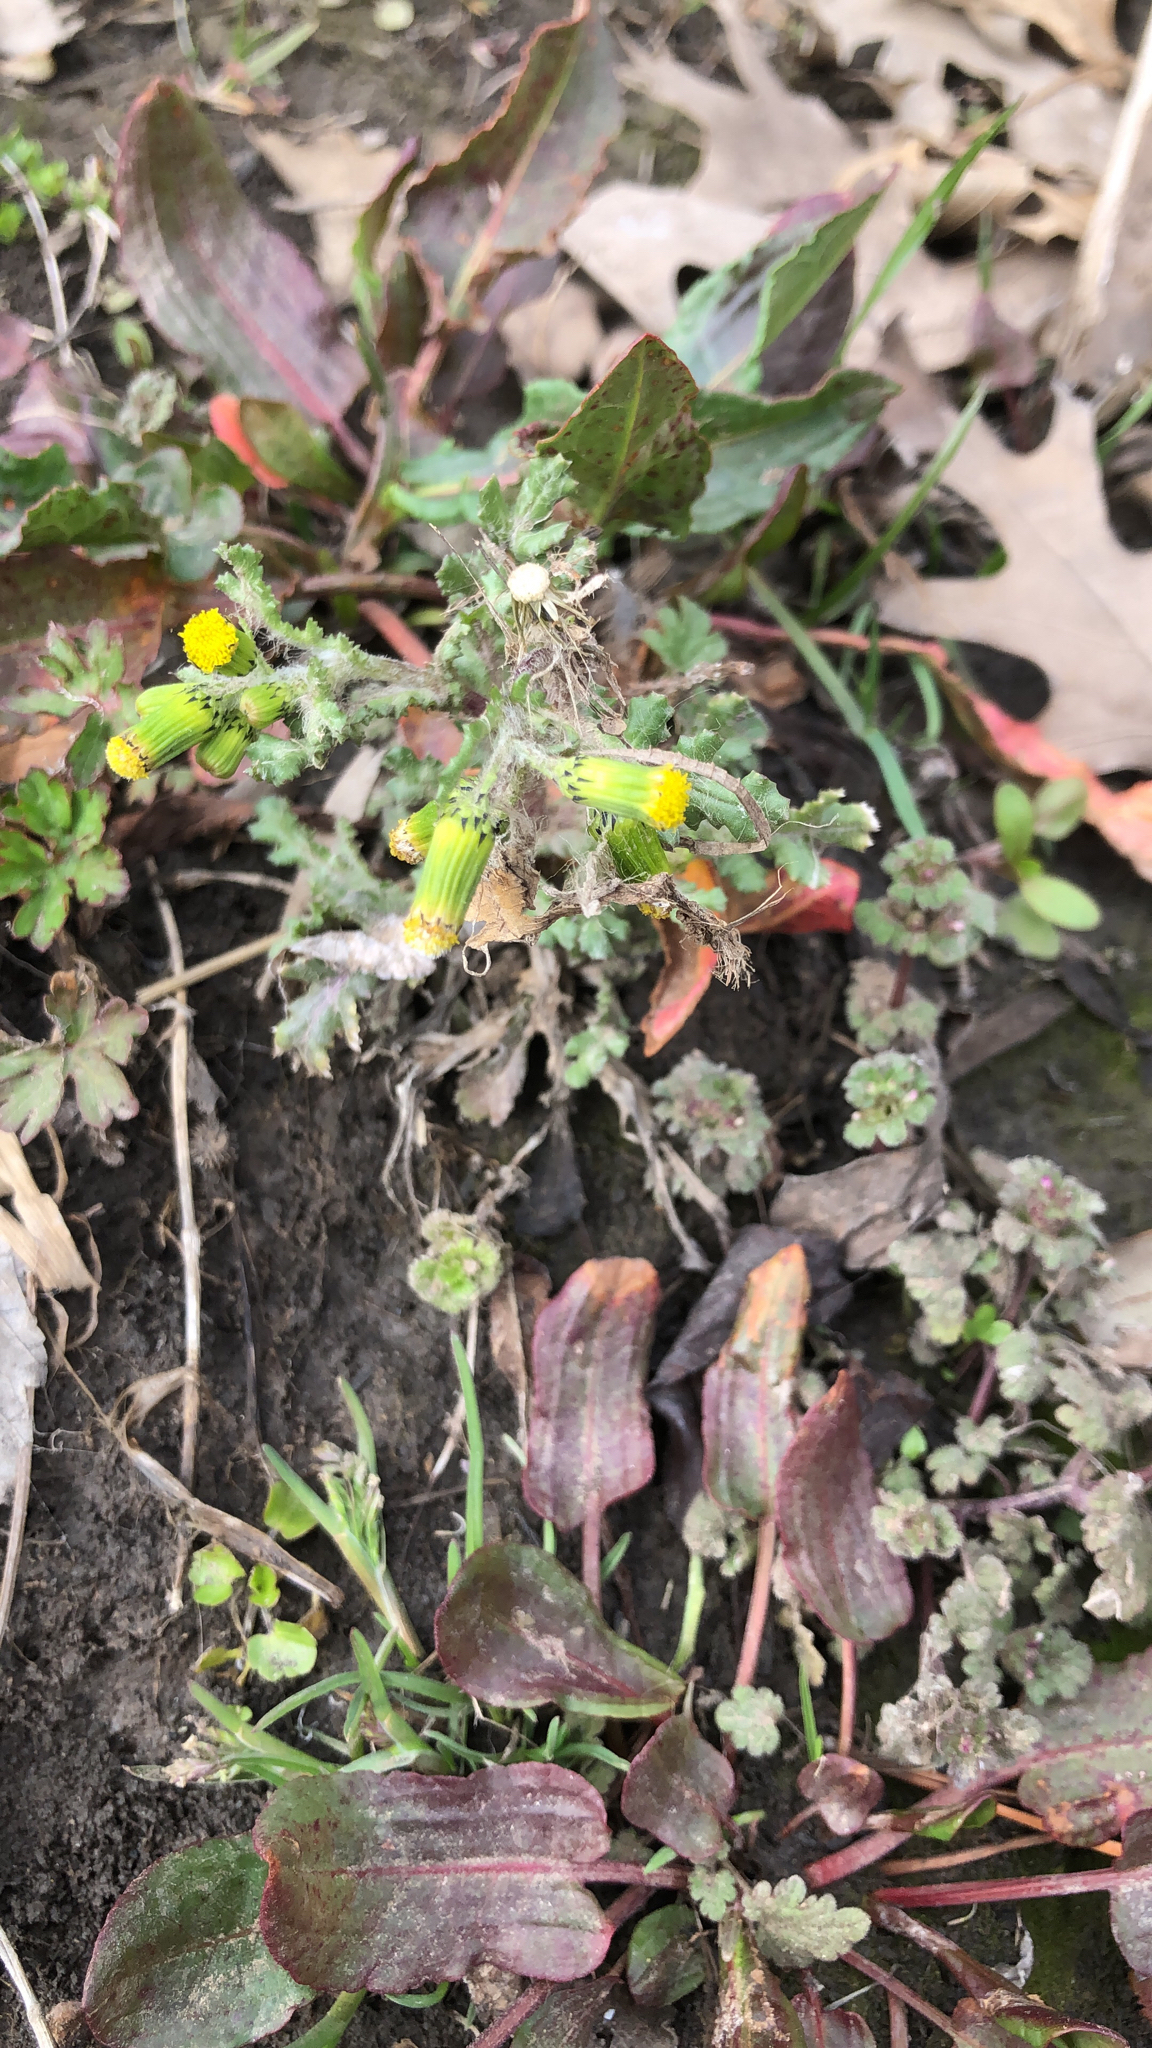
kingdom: Plantae
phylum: Tracheophyta
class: Magnoliopsida
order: Asterales
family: Asteraceae
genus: Senecio
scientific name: Senecio vulgaris
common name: Old-man-in-the-spring
